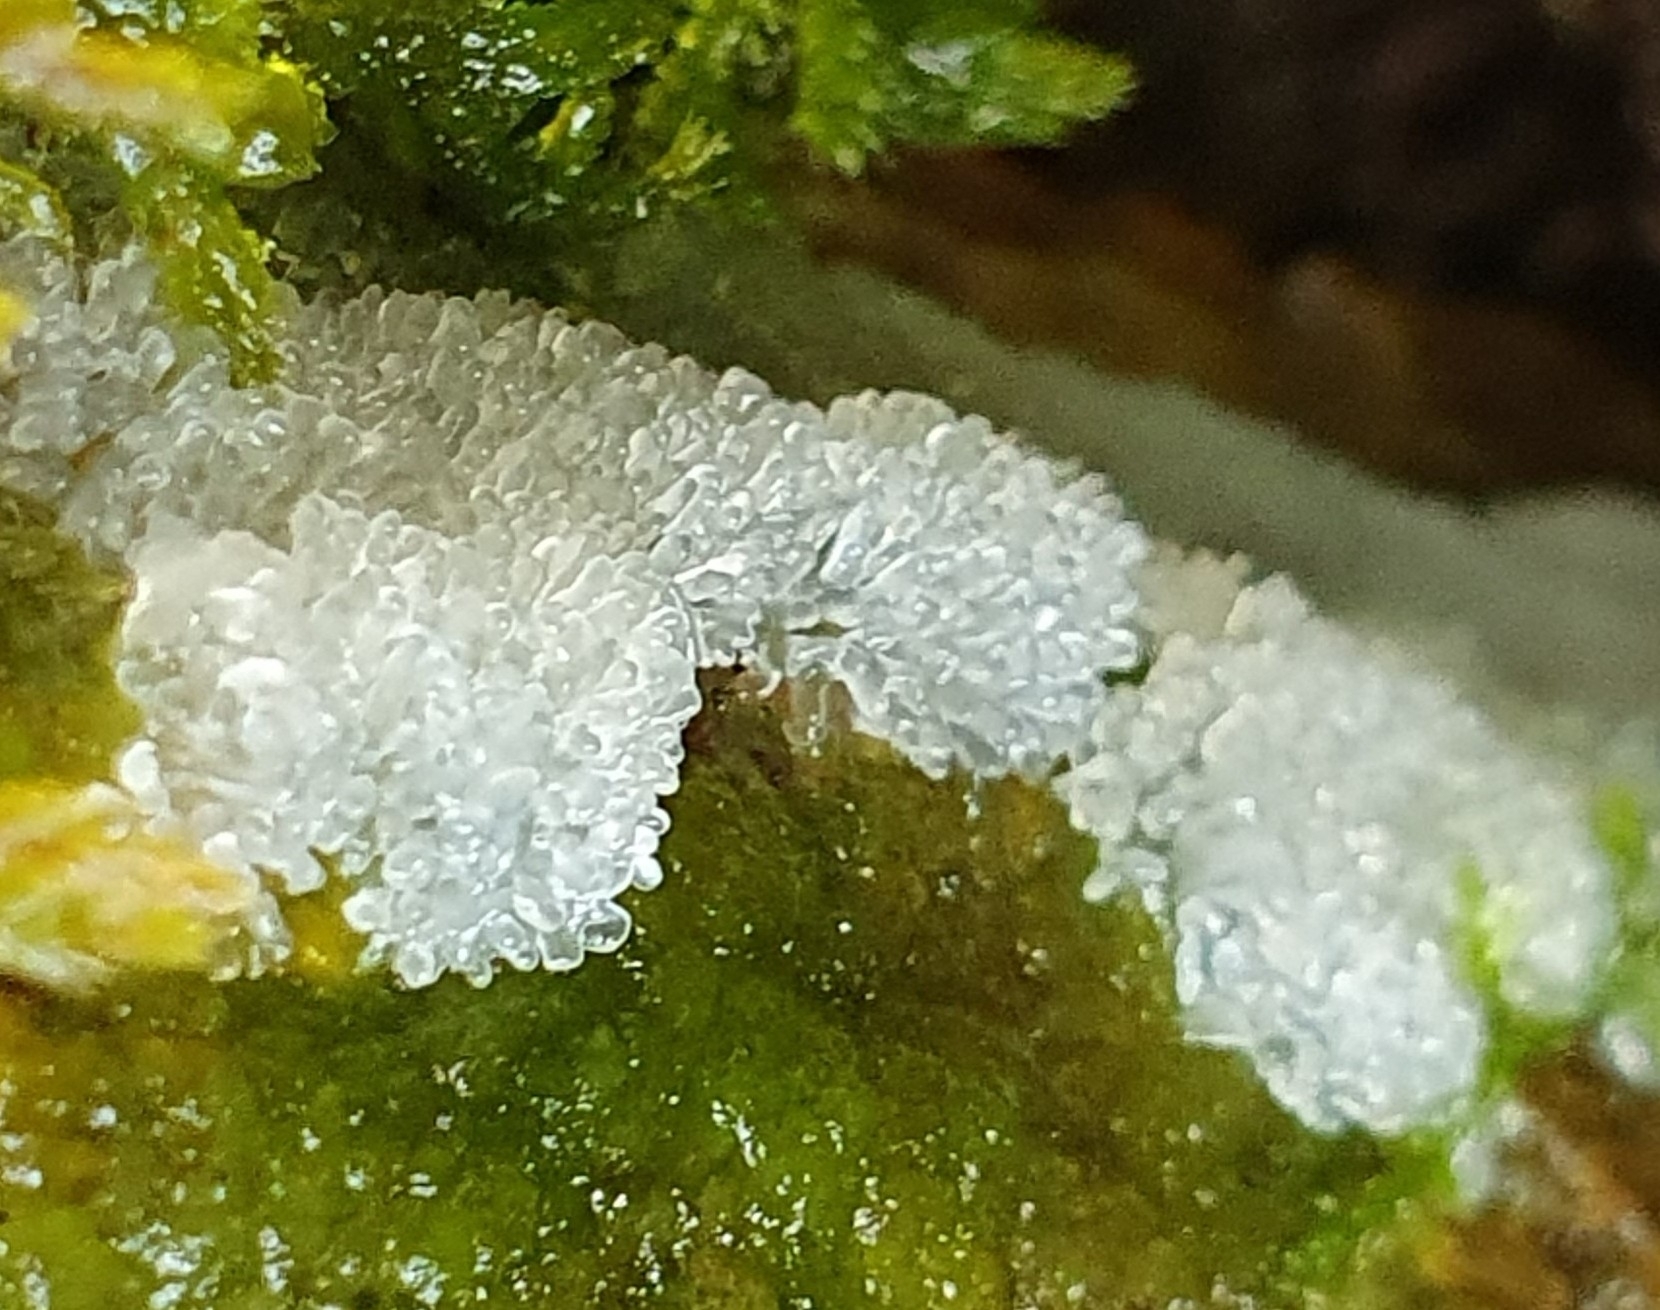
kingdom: Protozoa
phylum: Mycetozoa
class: Protosteliomycetes
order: Ceratiomyxales
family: Ceratiomyxaceae
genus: Ceratiomyxa
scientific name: Ceratiomyxa fruticulosa
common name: Honeycomb coral slime mold
